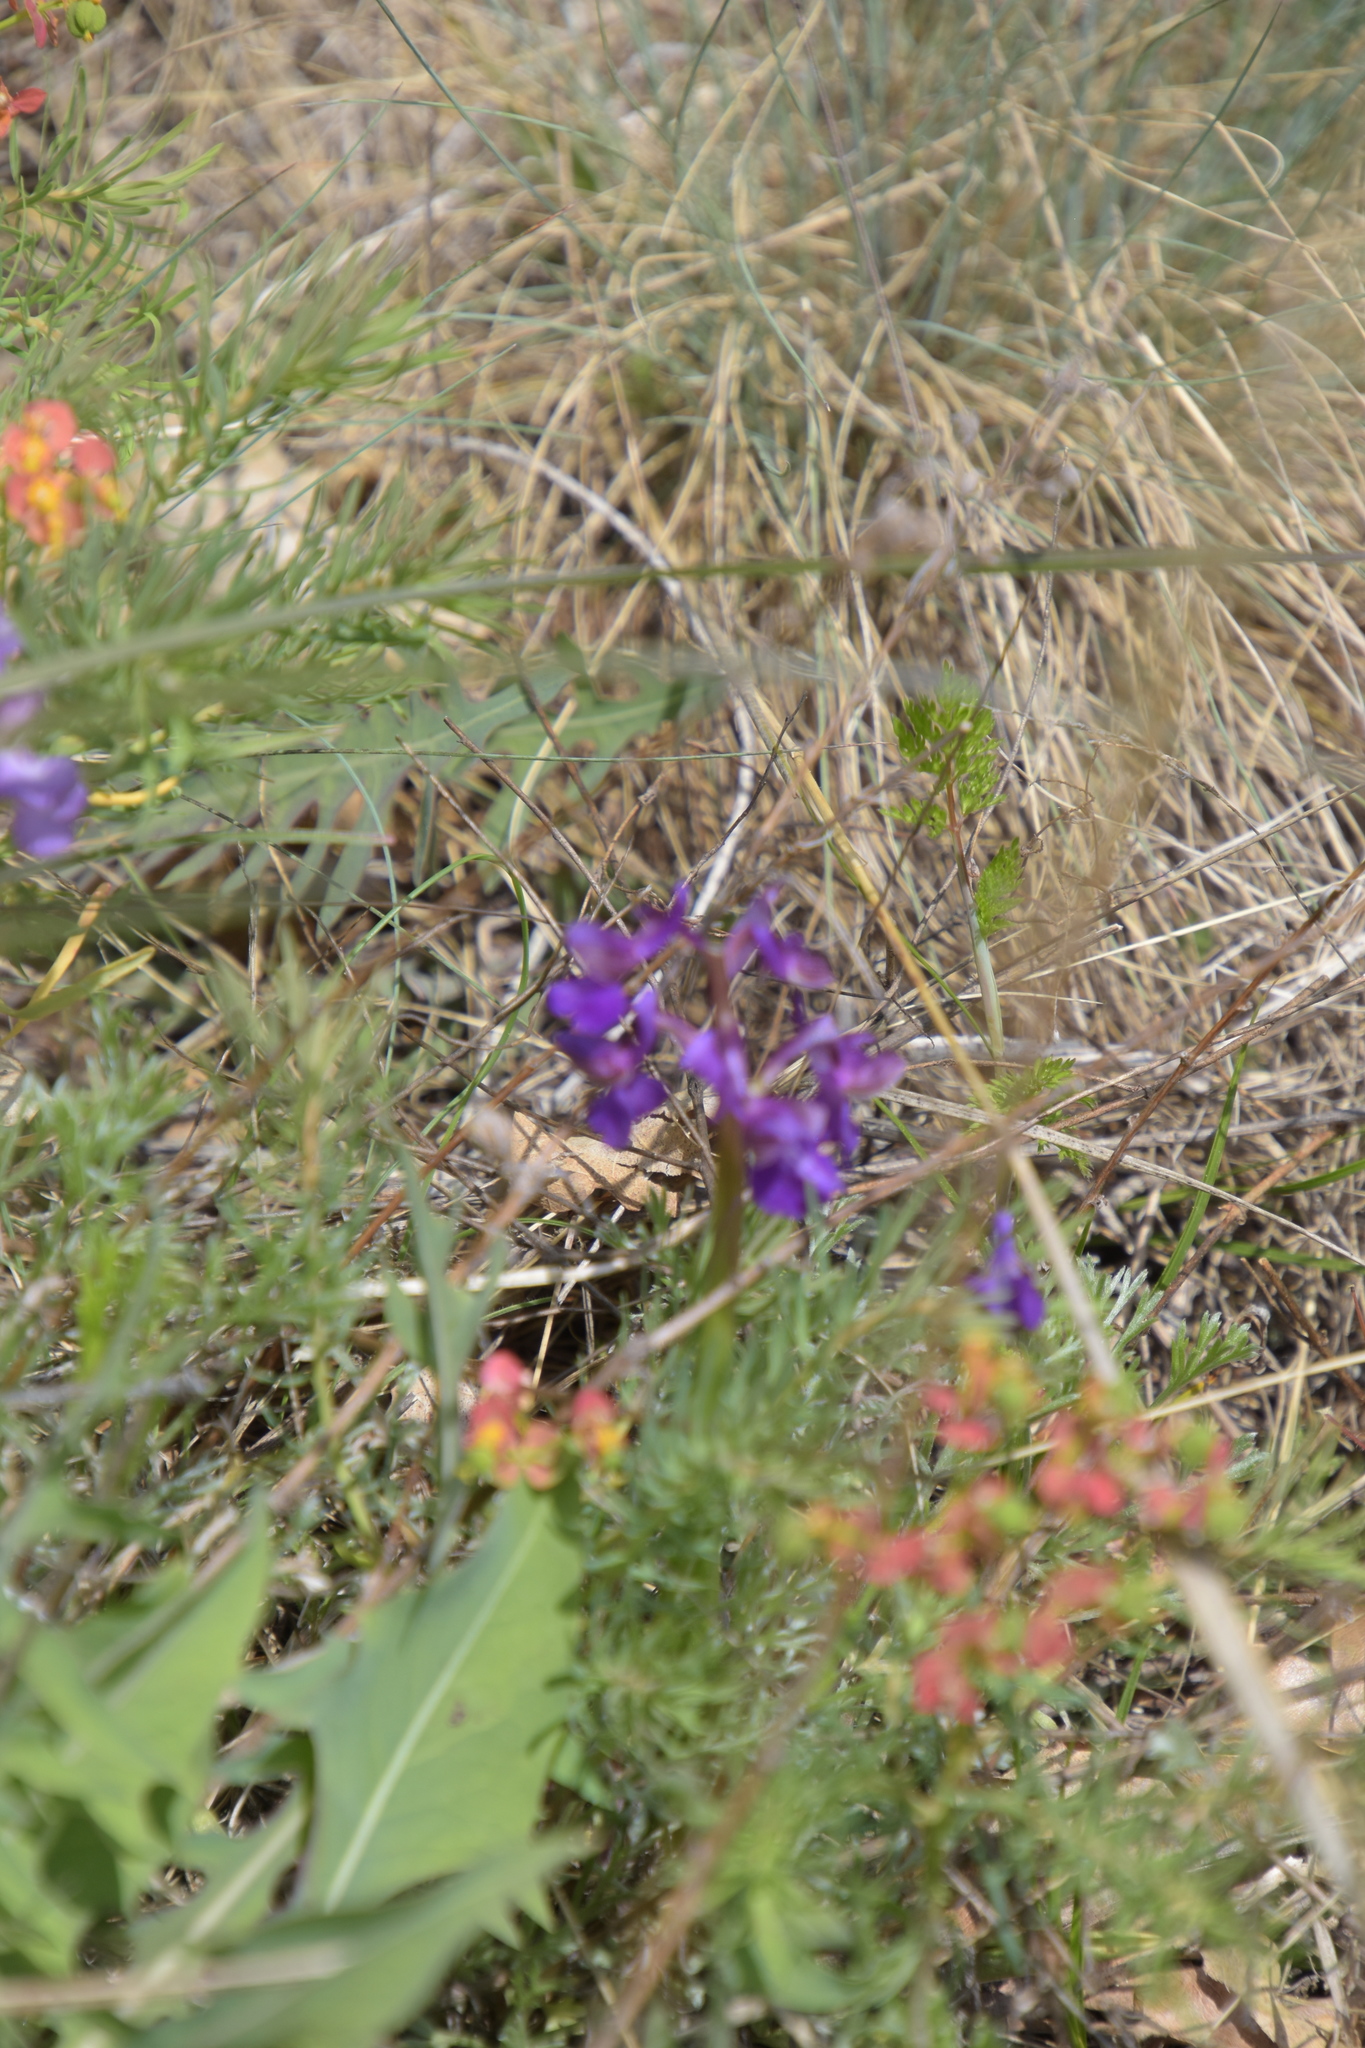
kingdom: Plantae
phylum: Tracheophyta
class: Liliopsida
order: Asparagales
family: Orchidaceae
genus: Anacamptis
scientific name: Anacamptis morio
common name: Green-winged orchid
